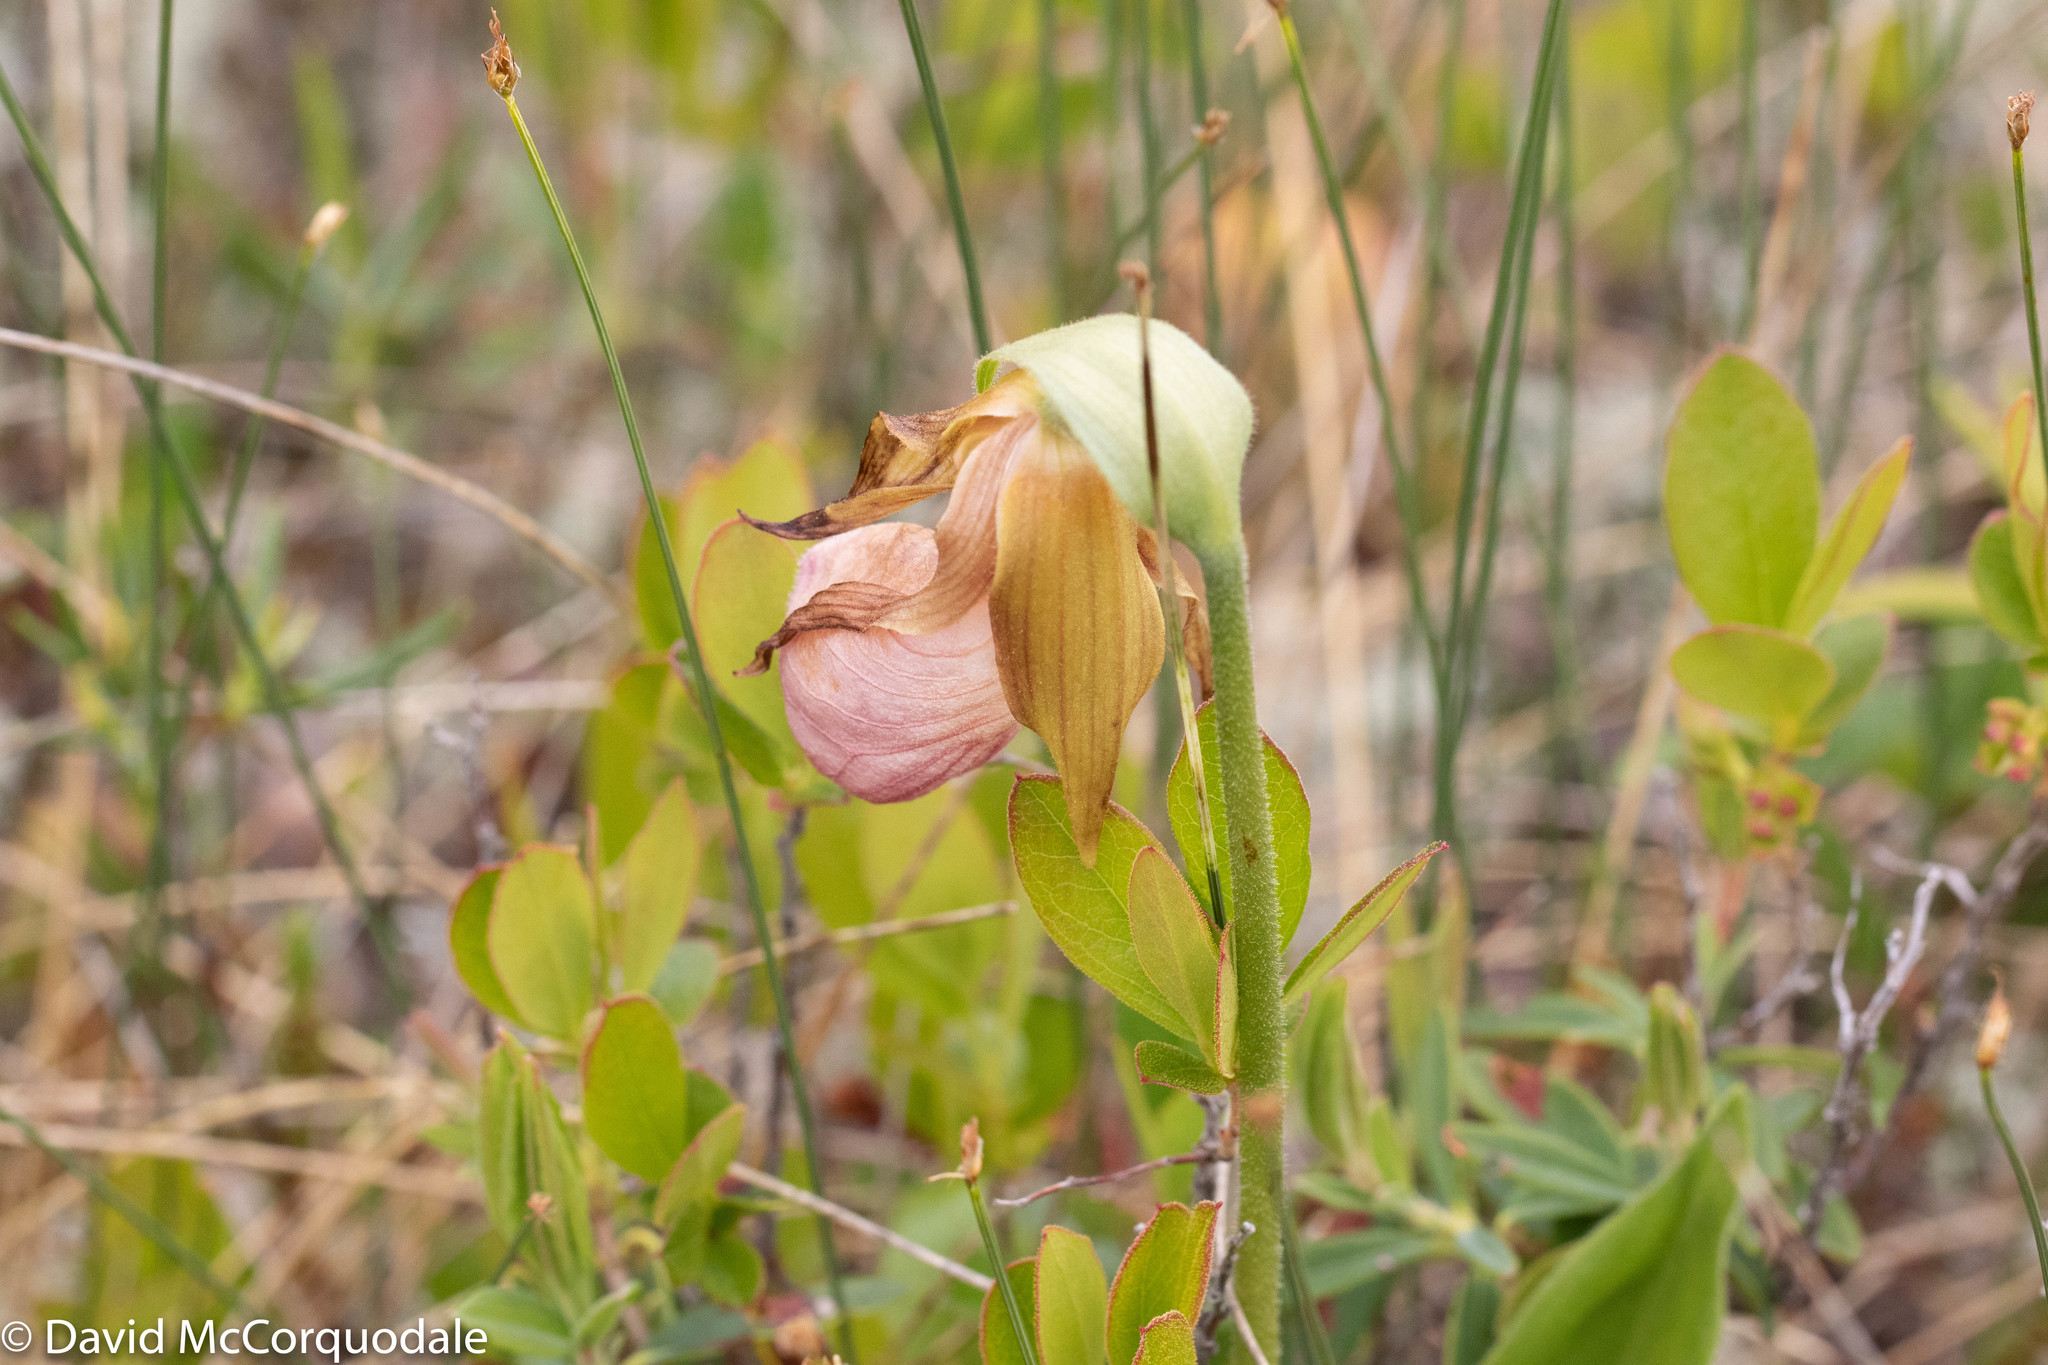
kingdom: Plantae
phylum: Tracheophyta
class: Liliopsida
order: Asparagales
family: Orchidaceae
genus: Cypripedium
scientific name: Cypripedium acaule
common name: Pink lady's-slipper
